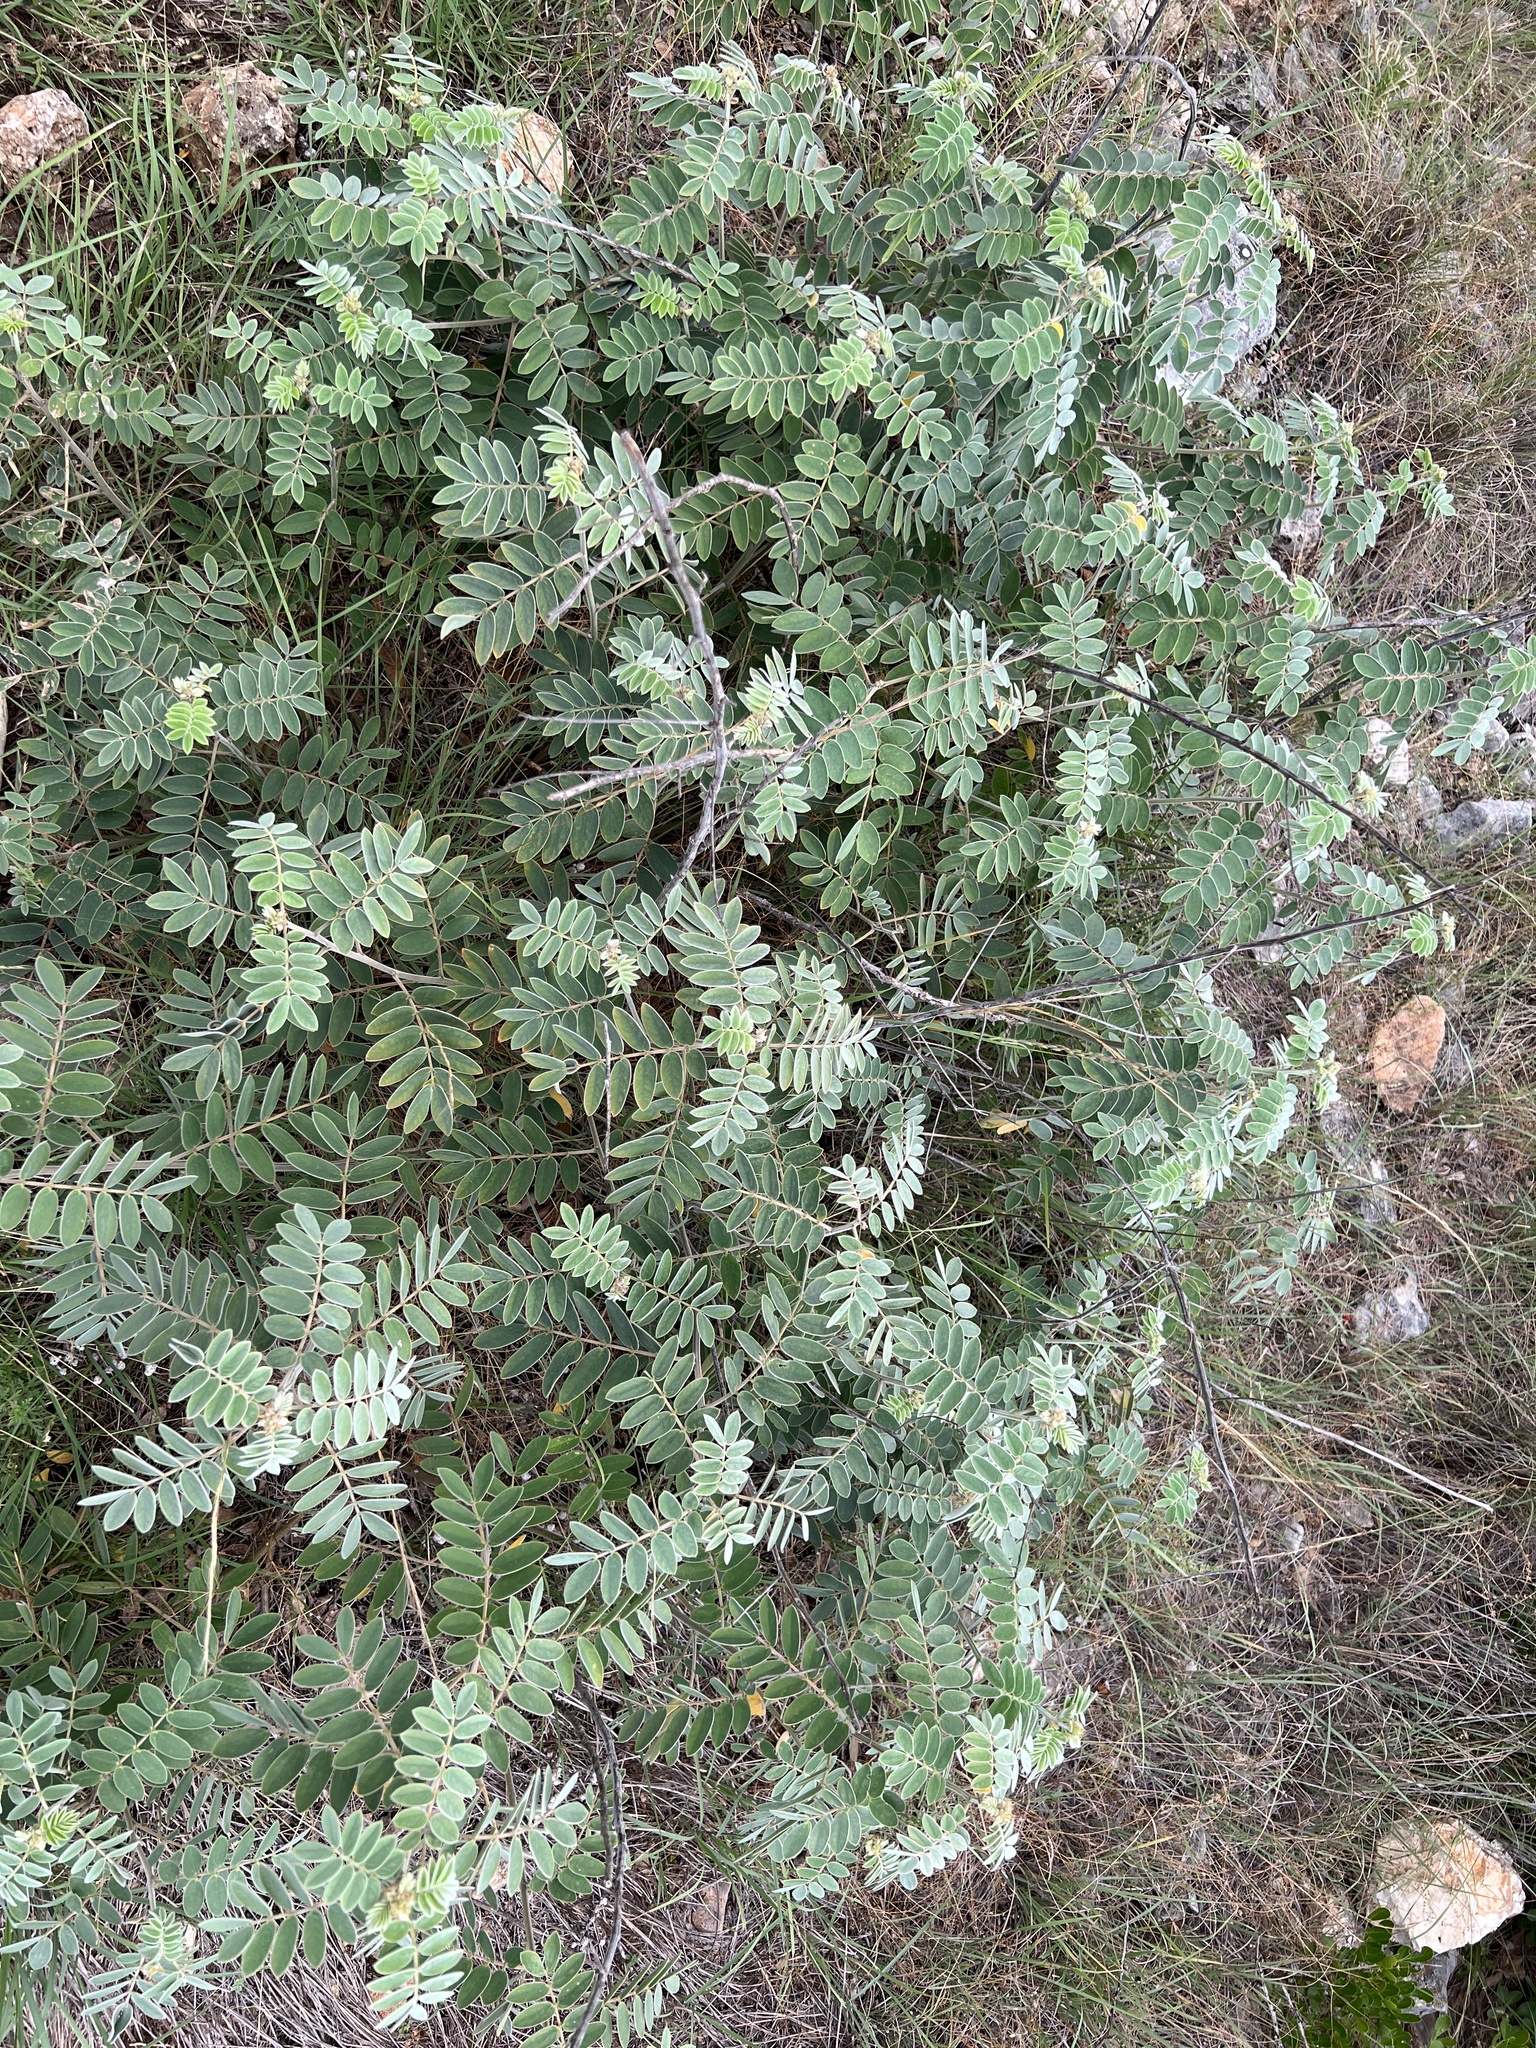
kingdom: Plantae
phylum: Tracheophyta
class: Magnoliopsida
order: Fabales
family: Fabaceae
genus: Senna
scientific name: Senna lindheimeriana
